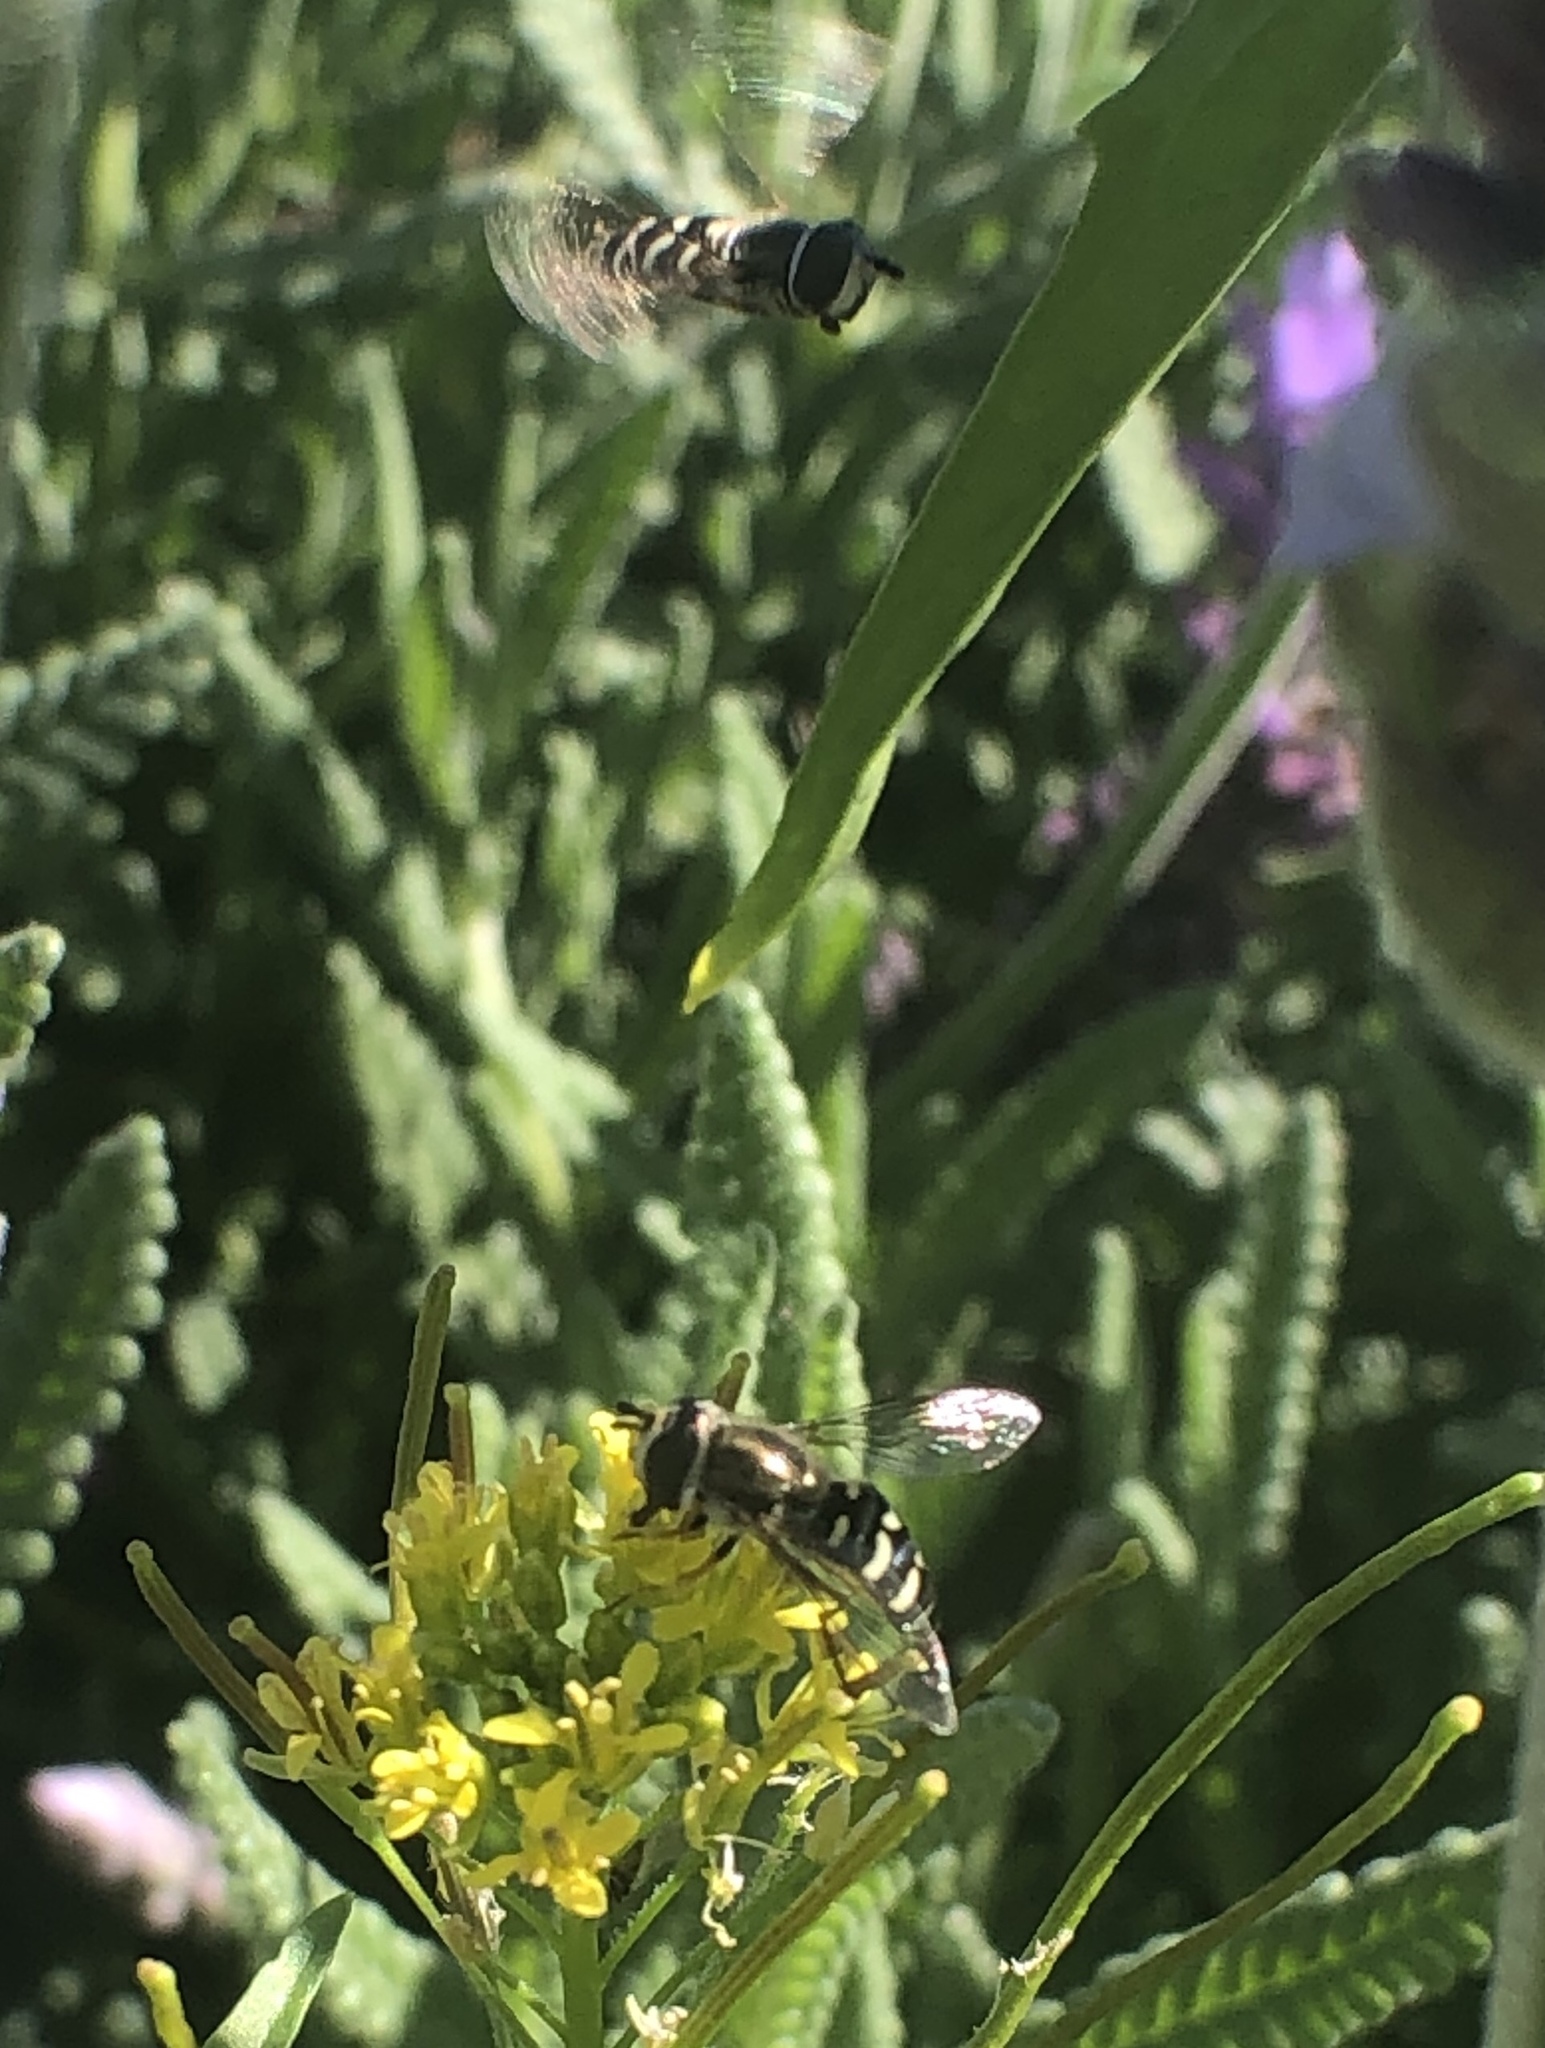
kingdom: Animalia
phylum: Arthropoda
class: Insecta
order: Diptera
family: Syrphidae
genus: Eupeodes
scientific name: Eupeodes volucris
